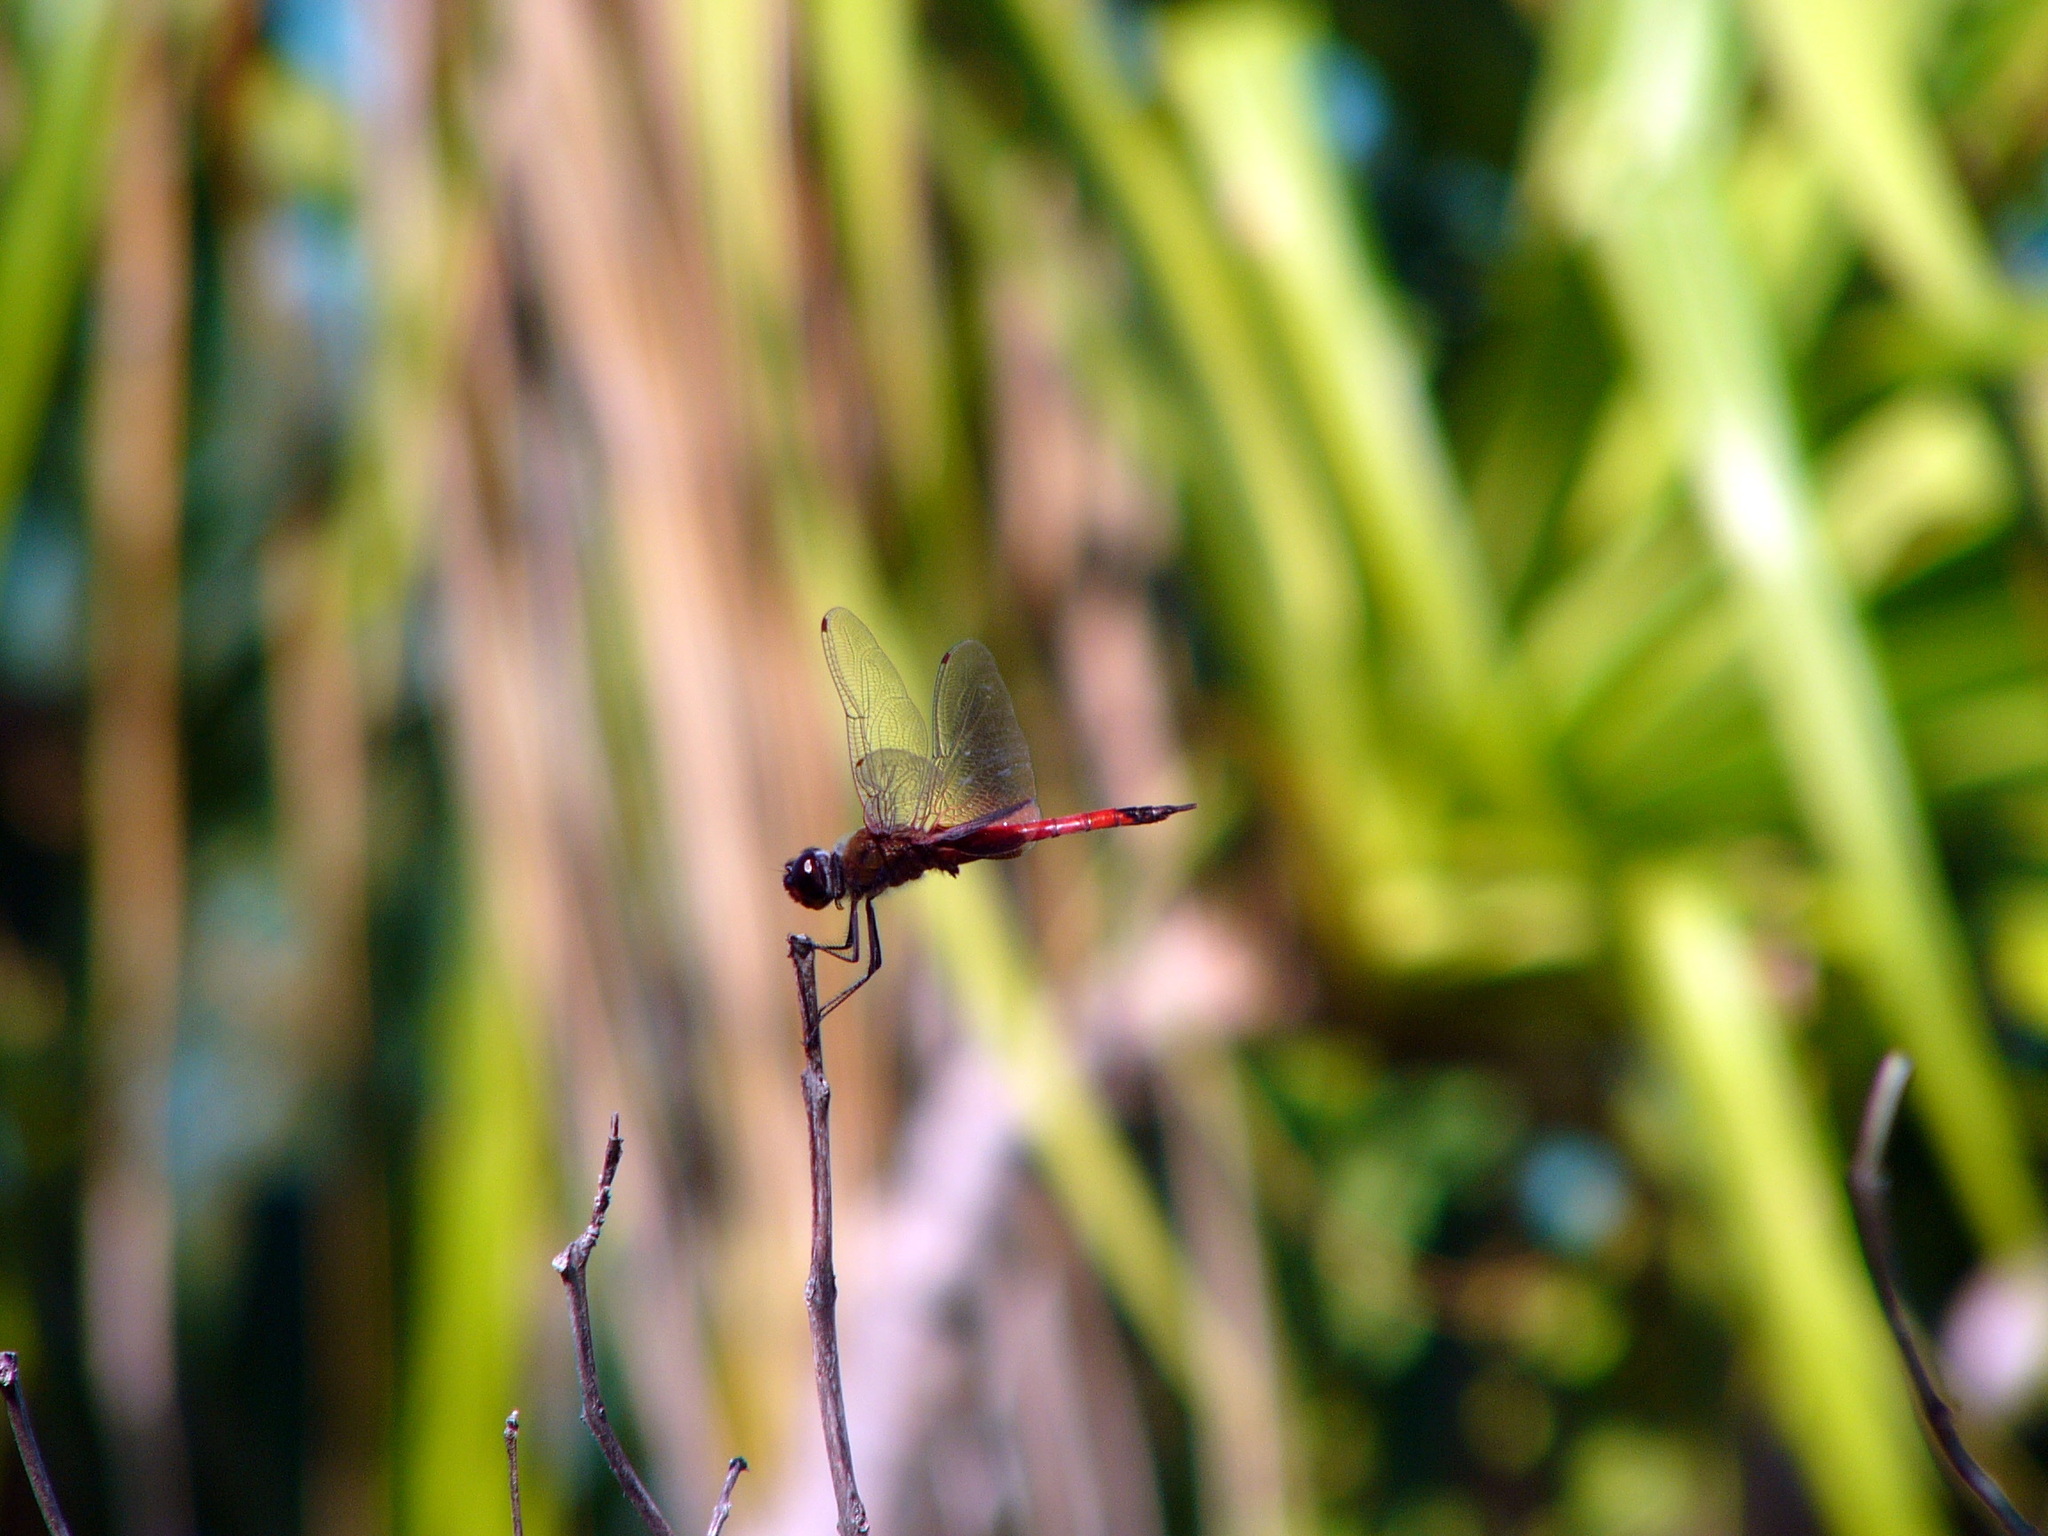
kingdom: Animalia
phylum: Arthropoda
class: Insecta
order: Odonata
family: Libellulidae
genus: Tramea
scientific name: Tramea transmarina
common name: Red glider dragonfly
